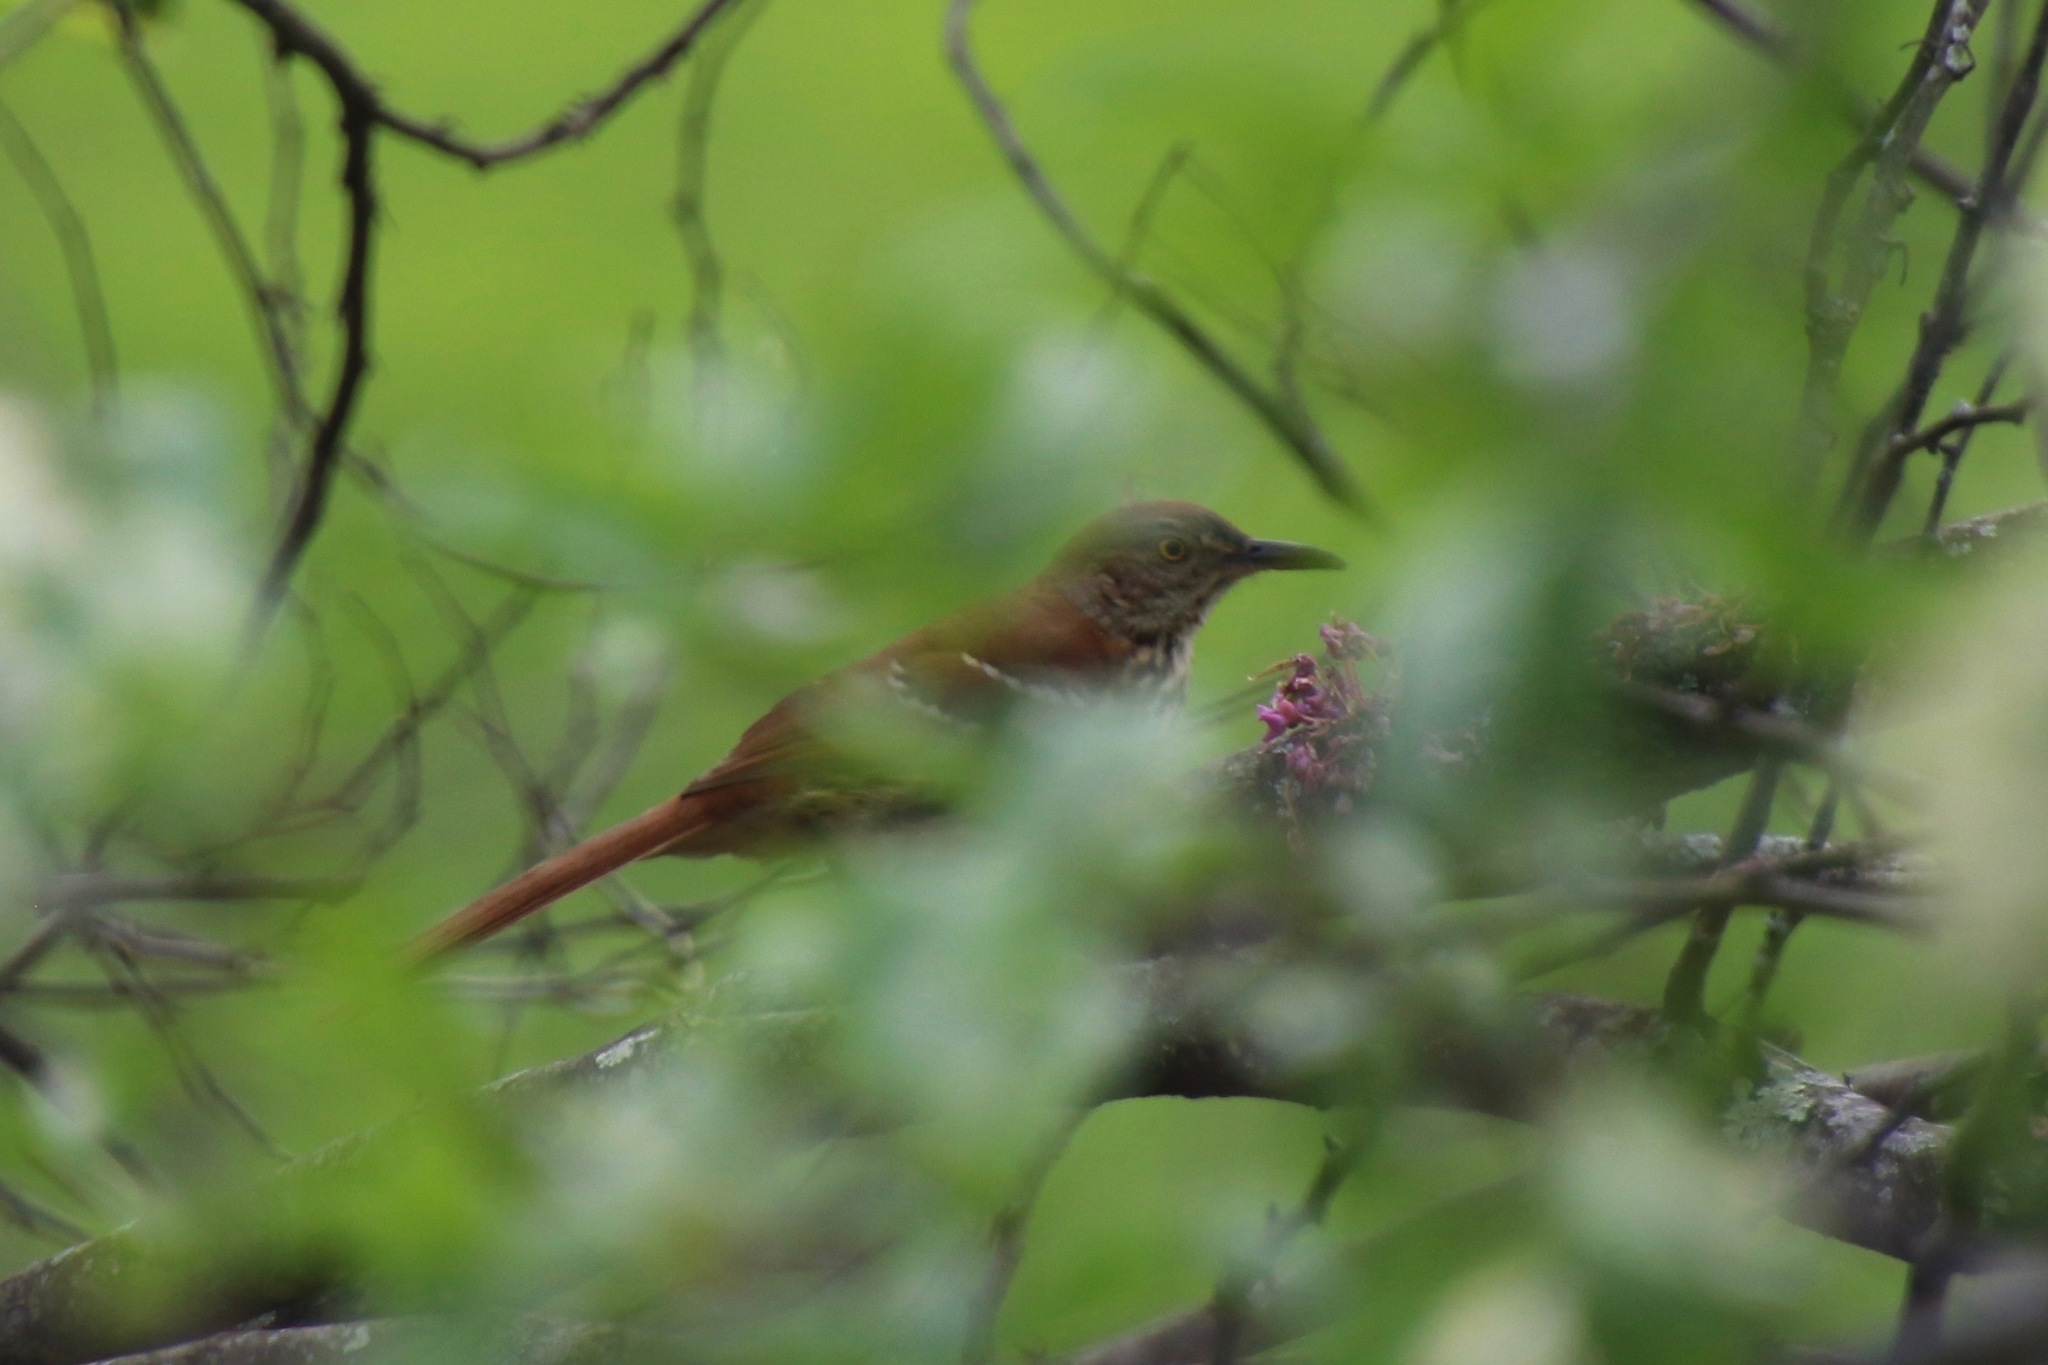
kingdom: Animalia
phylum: Chordata
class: Aves
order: Passeriformes
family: Mimidae
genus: Toxostoma
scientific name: Toxostoma rufum
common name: Brown thrasher
